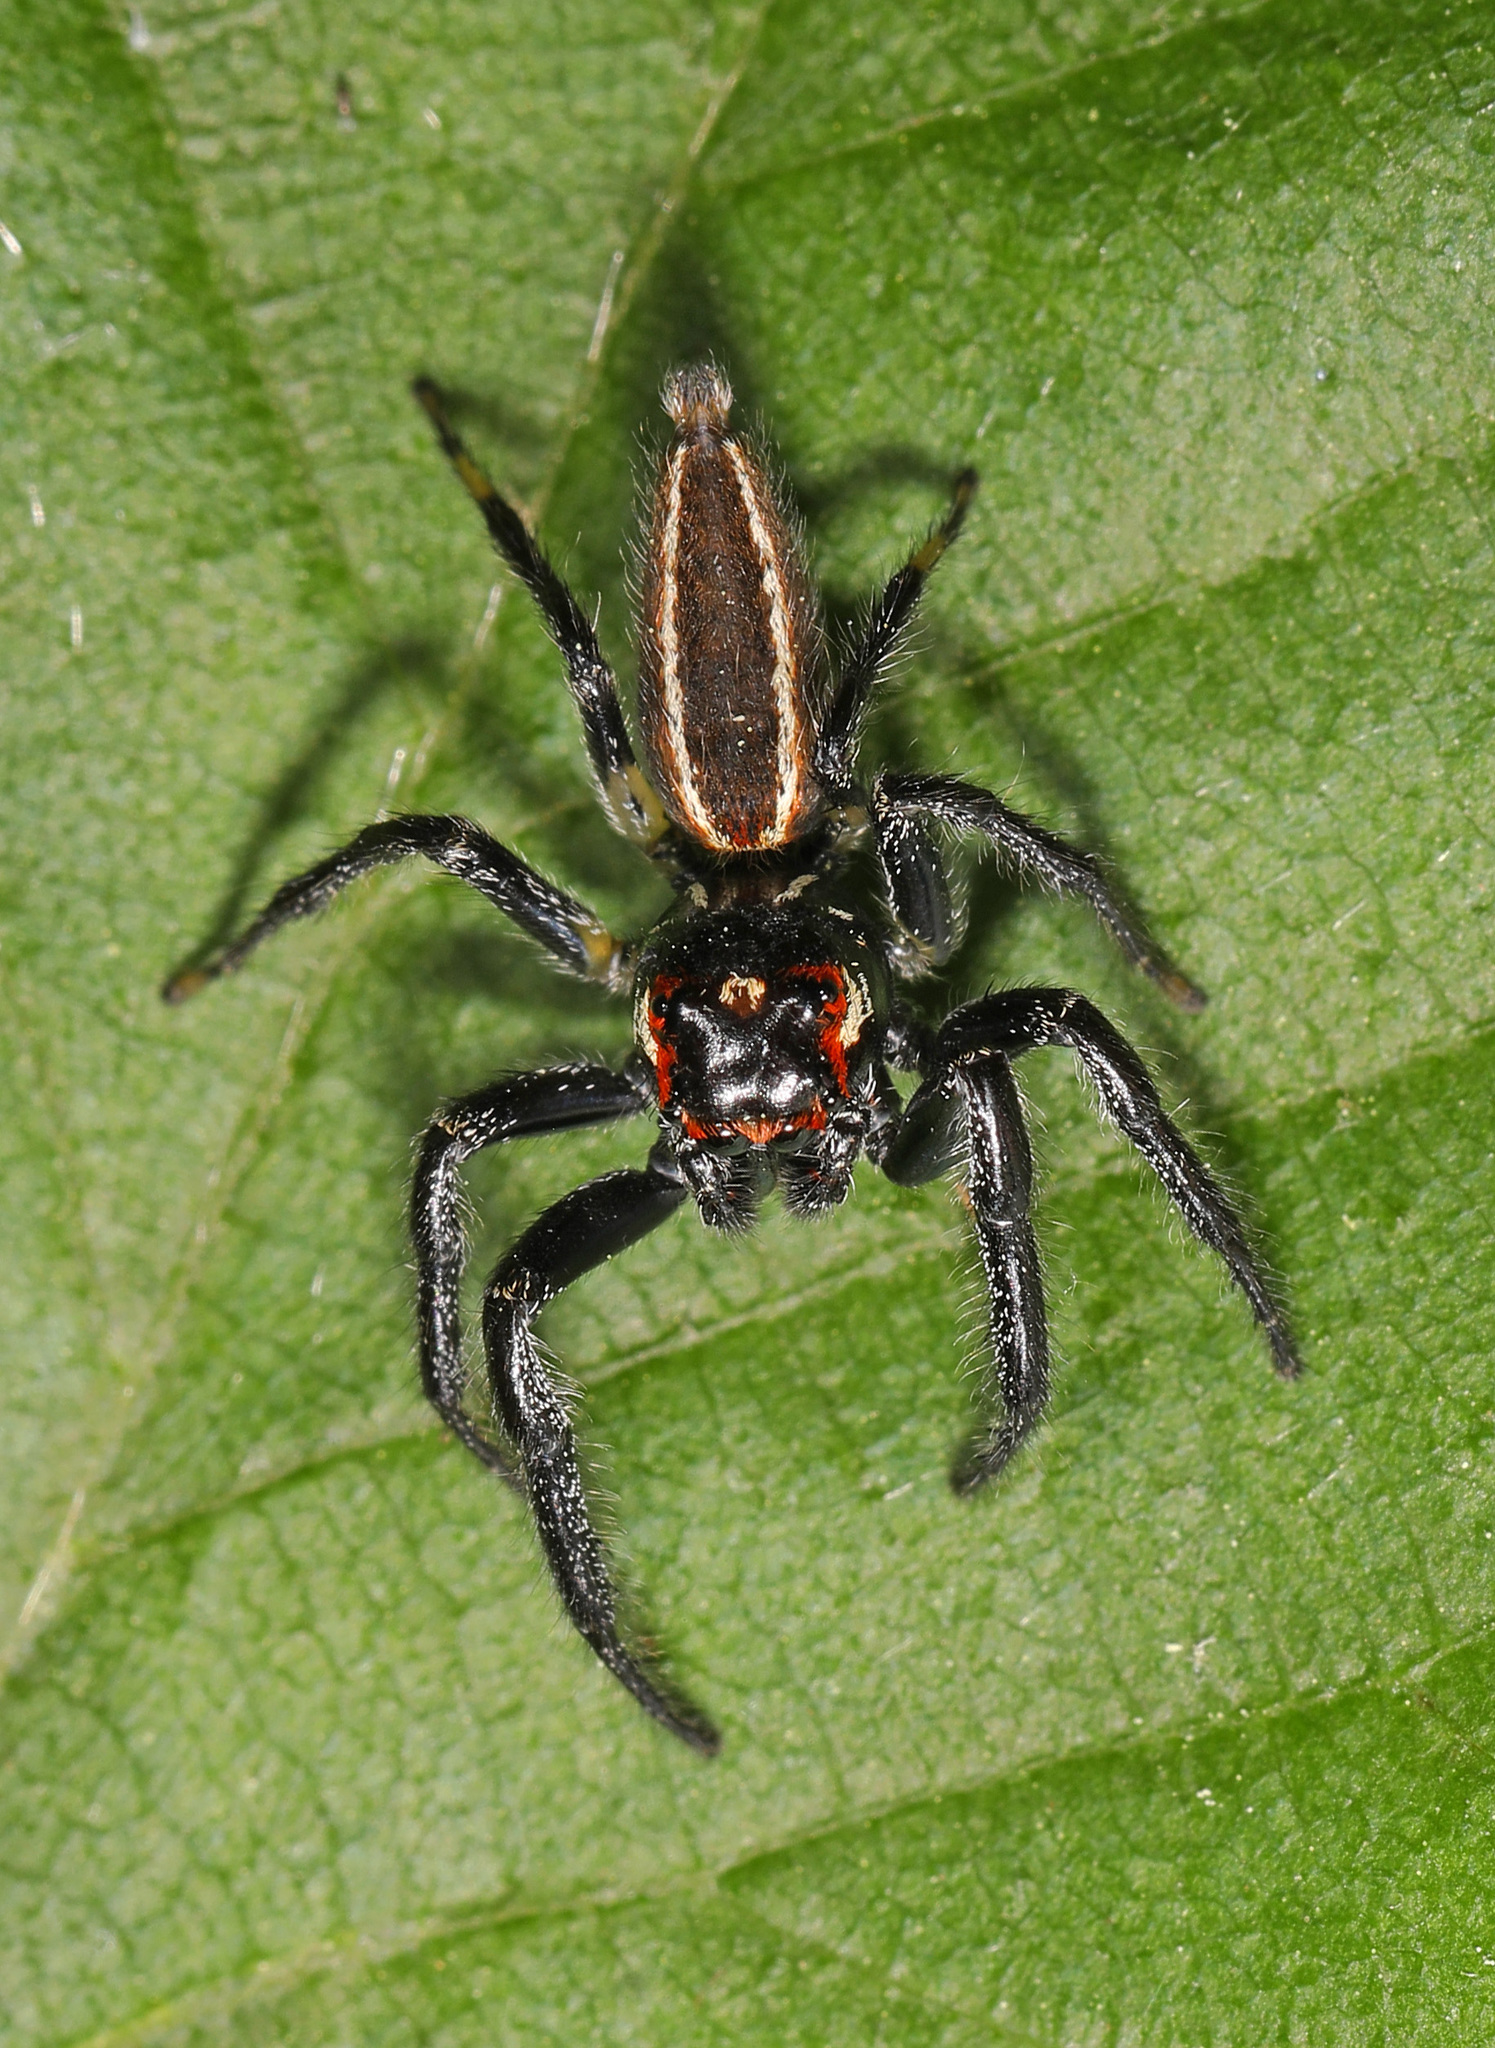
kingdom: Animalia
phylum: Arthropoda
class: Arachnida
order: Araneae
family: Salticidae
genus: Colonus
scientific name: Colonus sylvanus
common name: Jumping spiders
